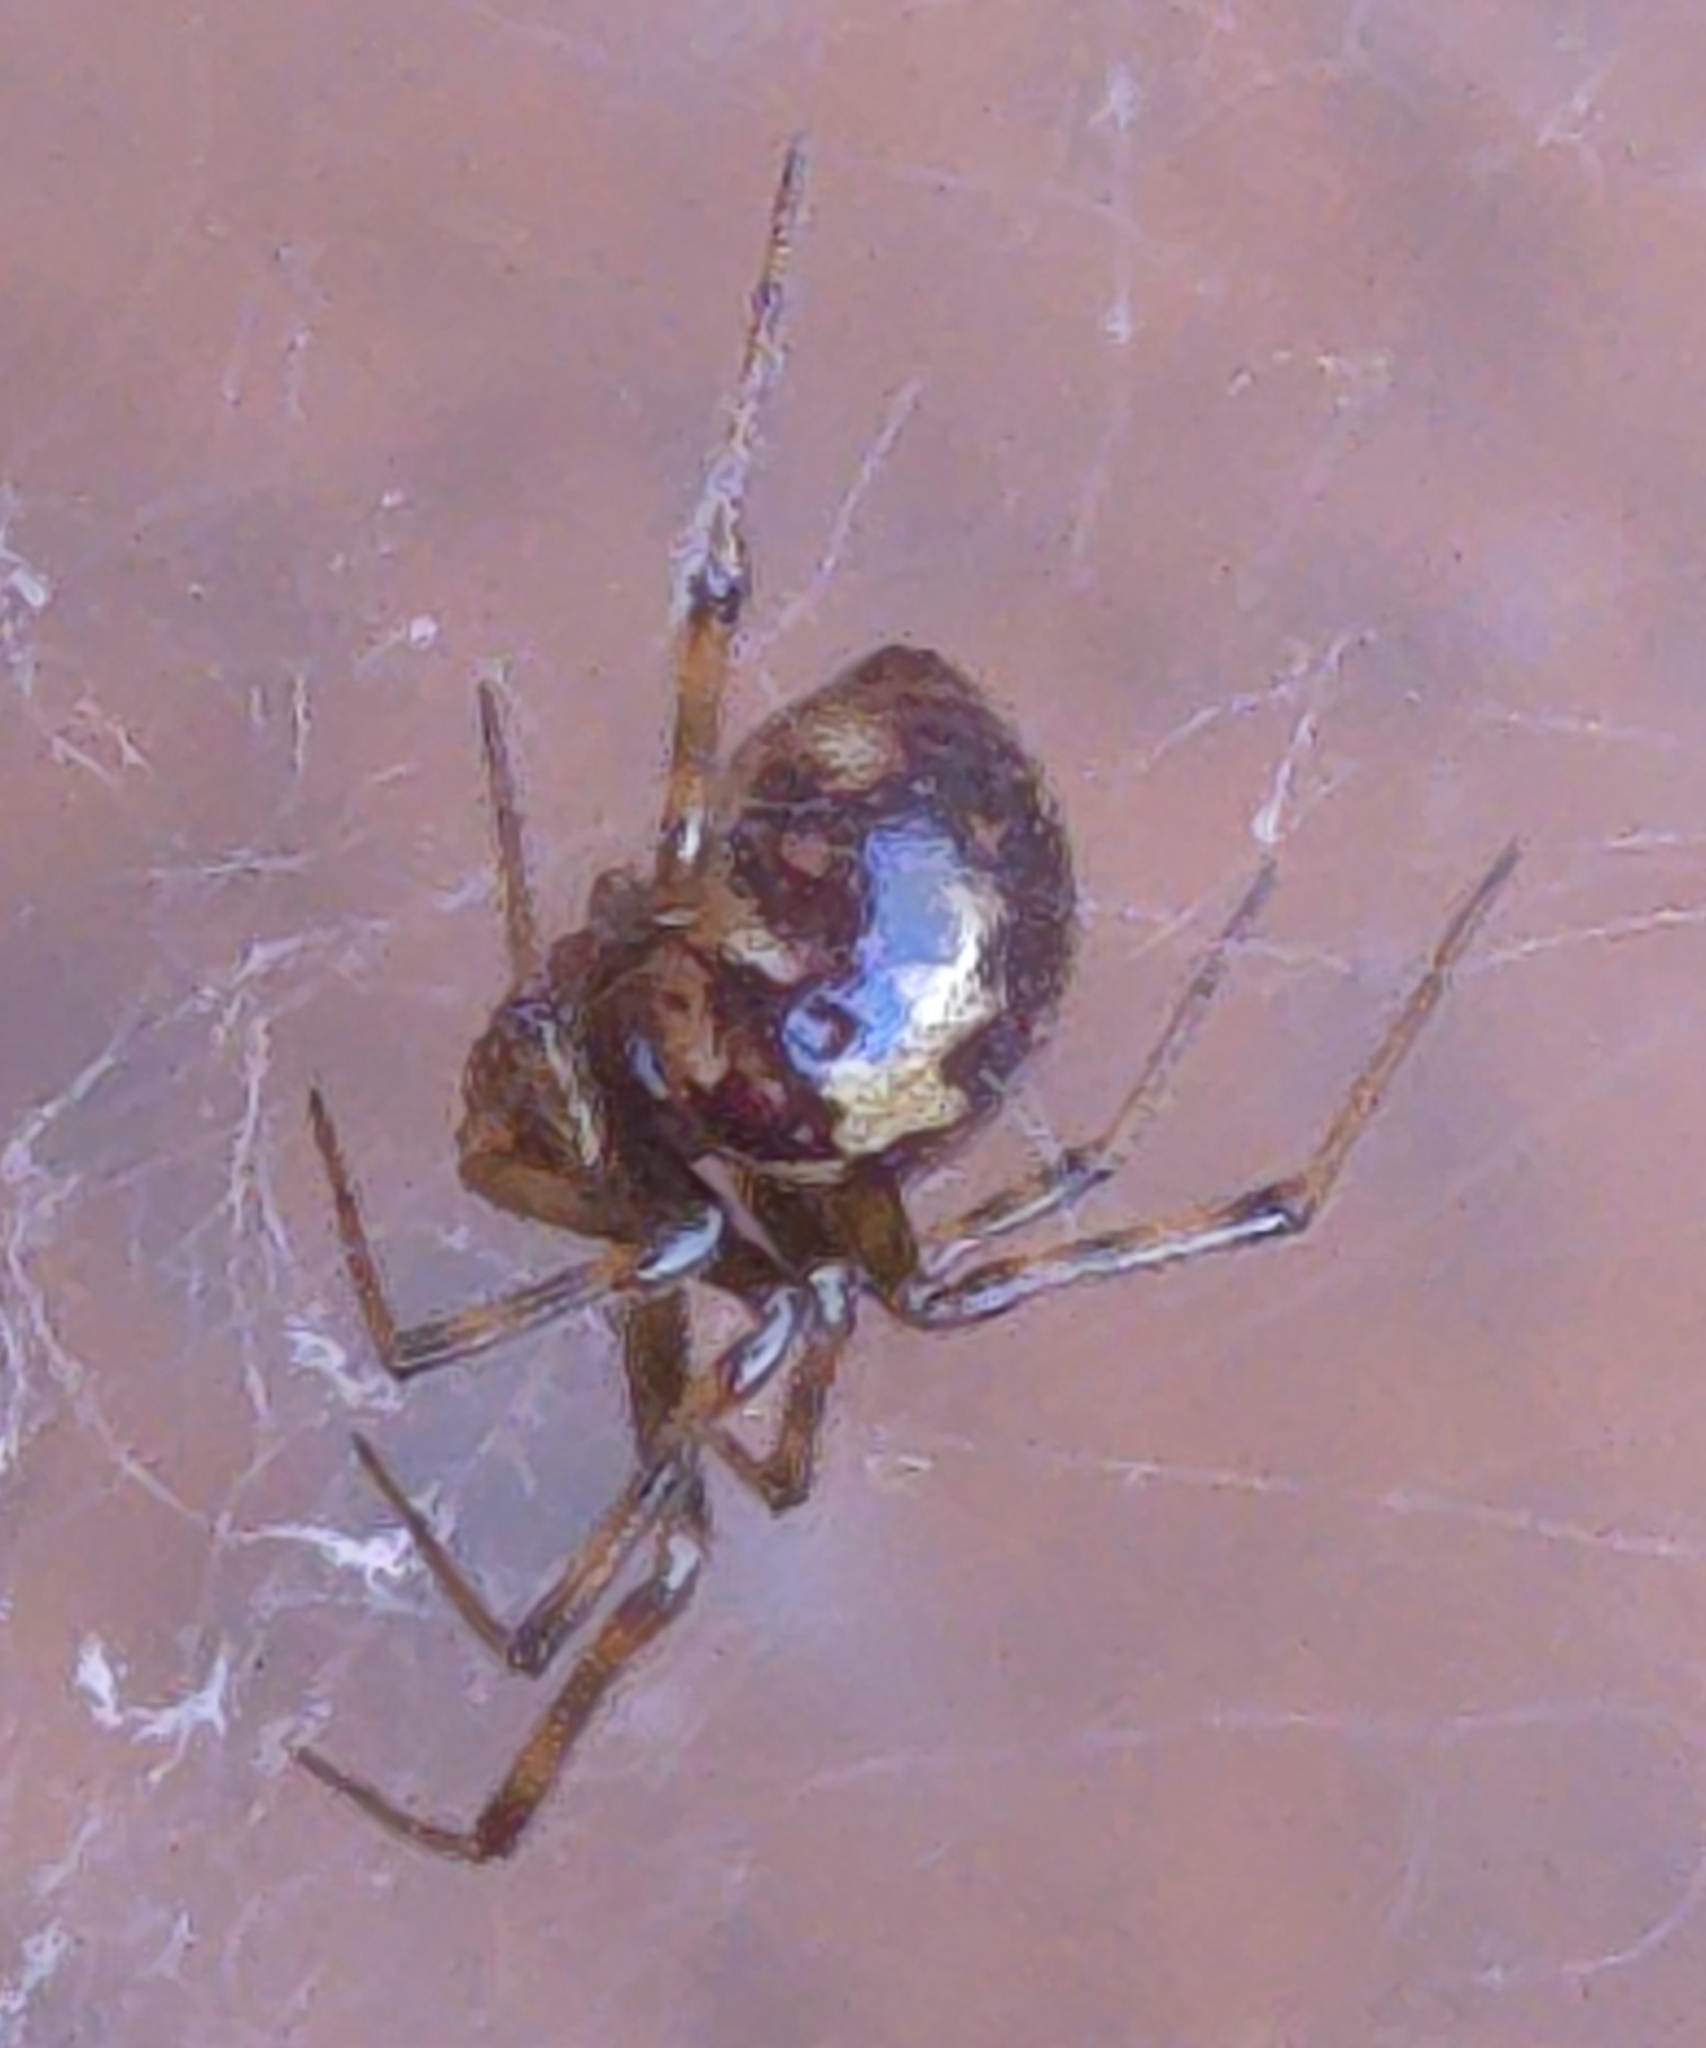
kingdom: Animalia
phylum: Arthropoda
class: Arachnida
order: Araneae
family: Theridiidae
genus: Steatoda
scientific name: Steatoda triangulosa
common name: Triangulate bud spider
